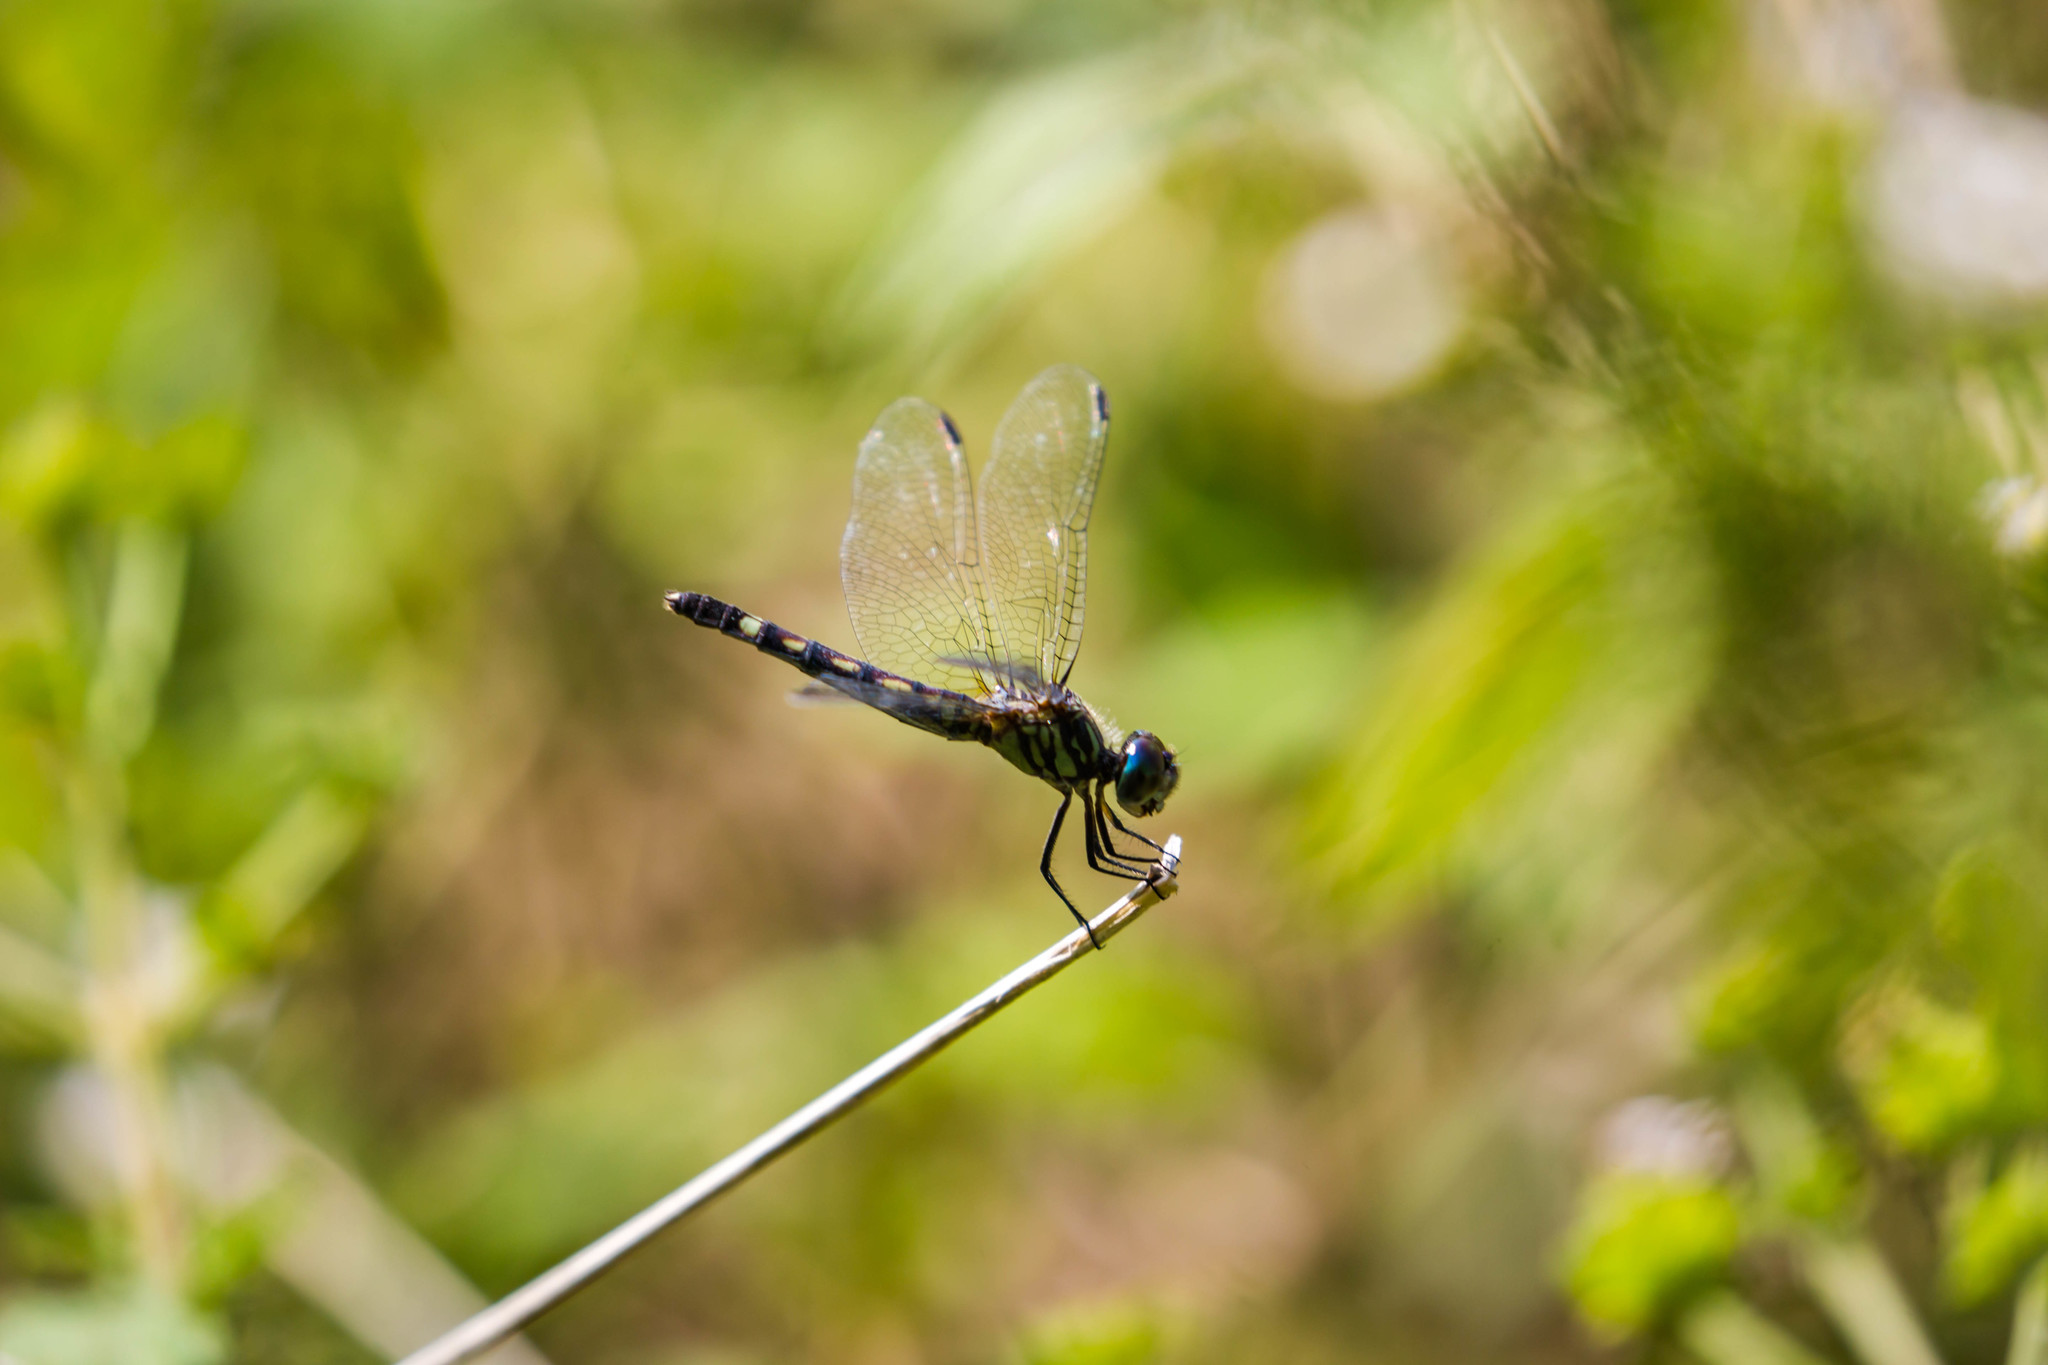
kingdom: Animalia
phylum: Arthropoda
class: Insecta
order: Odonata
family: Libellulidae
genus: Micrathyria
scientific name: Micrathyria hagenii
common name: Thornbush dasher
